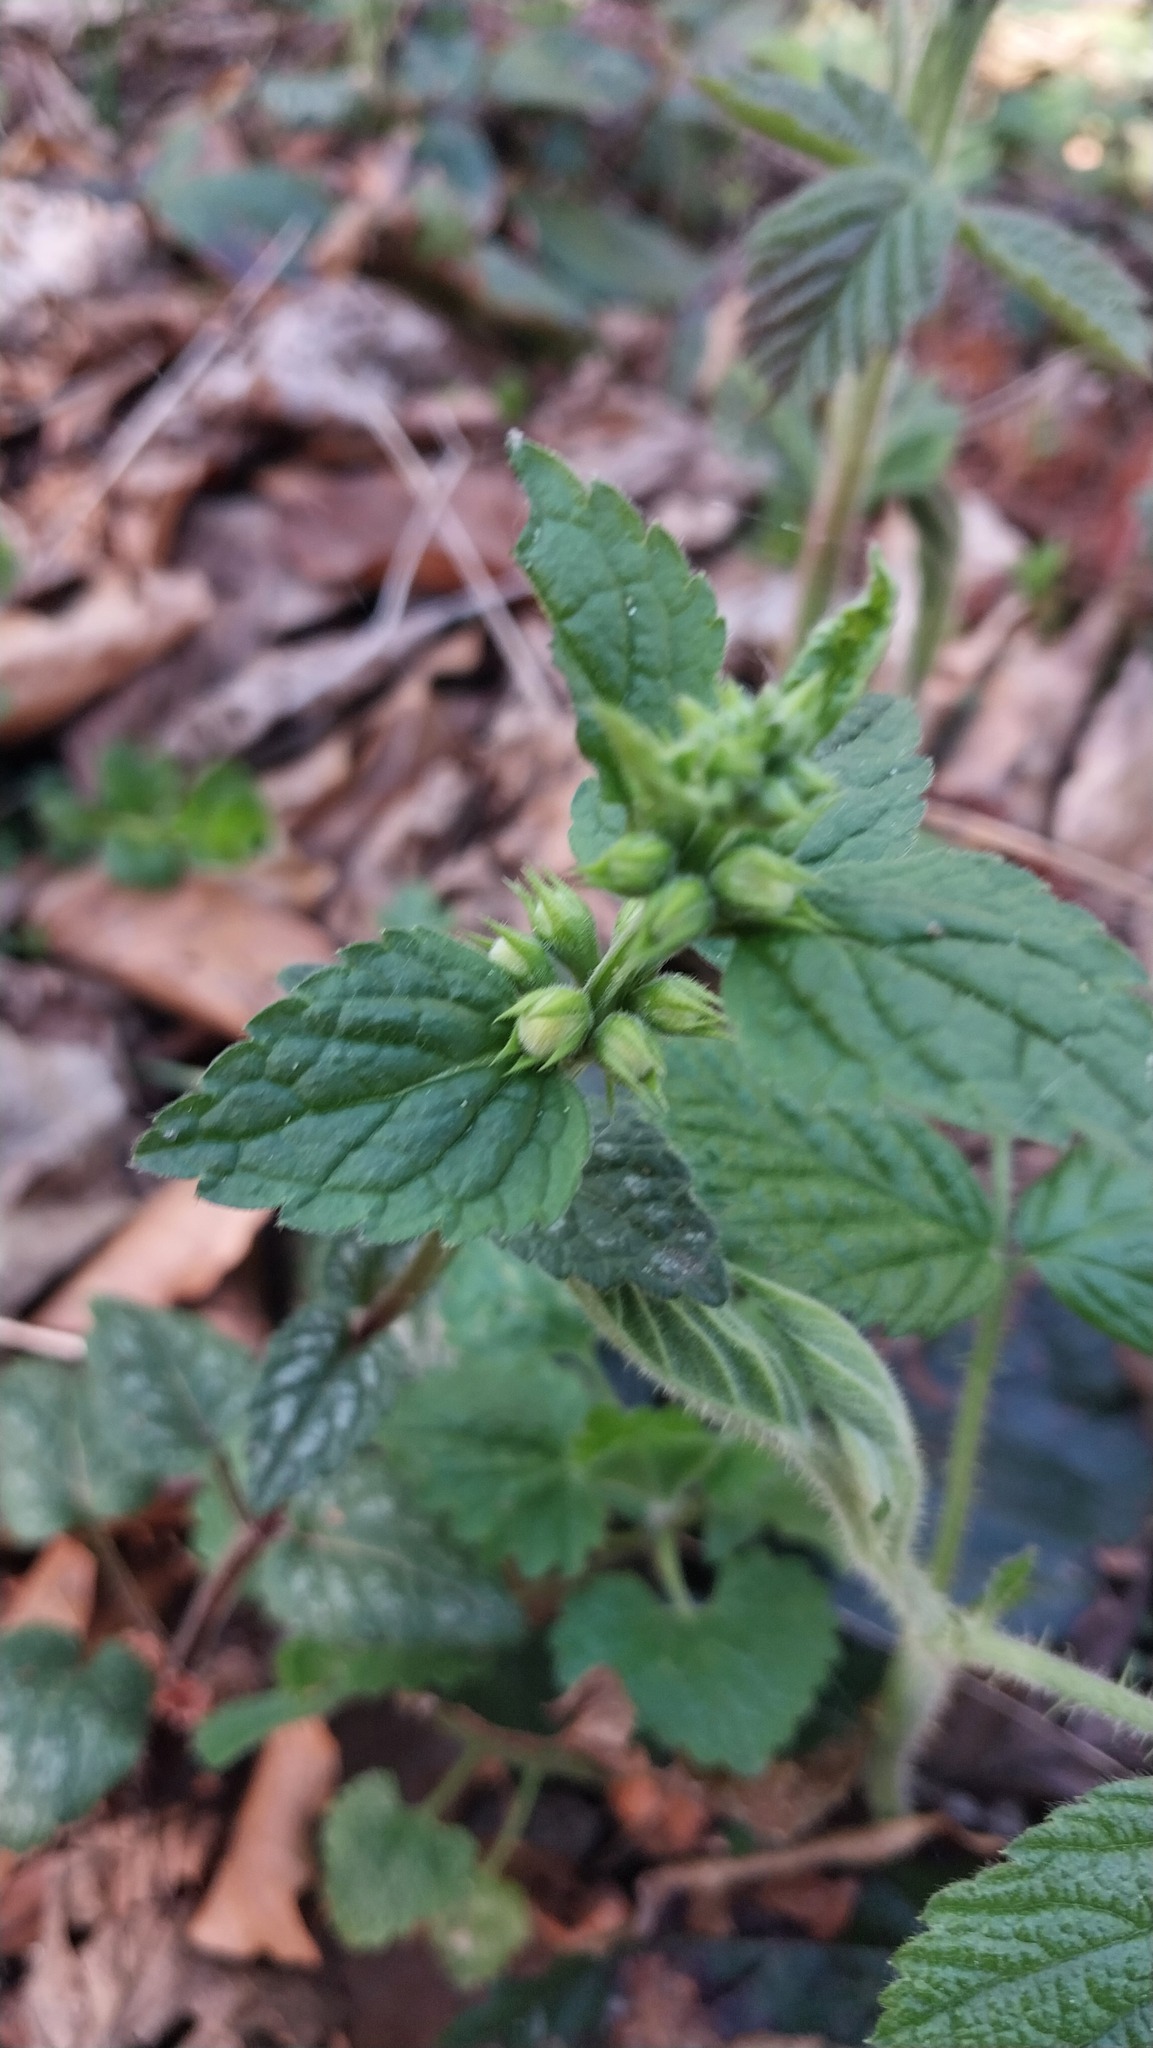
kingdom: Plantae
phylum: Tracheophyta
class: Magnoliopsida
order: Lamiales
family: Lamiaceae
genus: Lamium
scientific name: Lamium galeobdolon
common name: Yellow archangel
